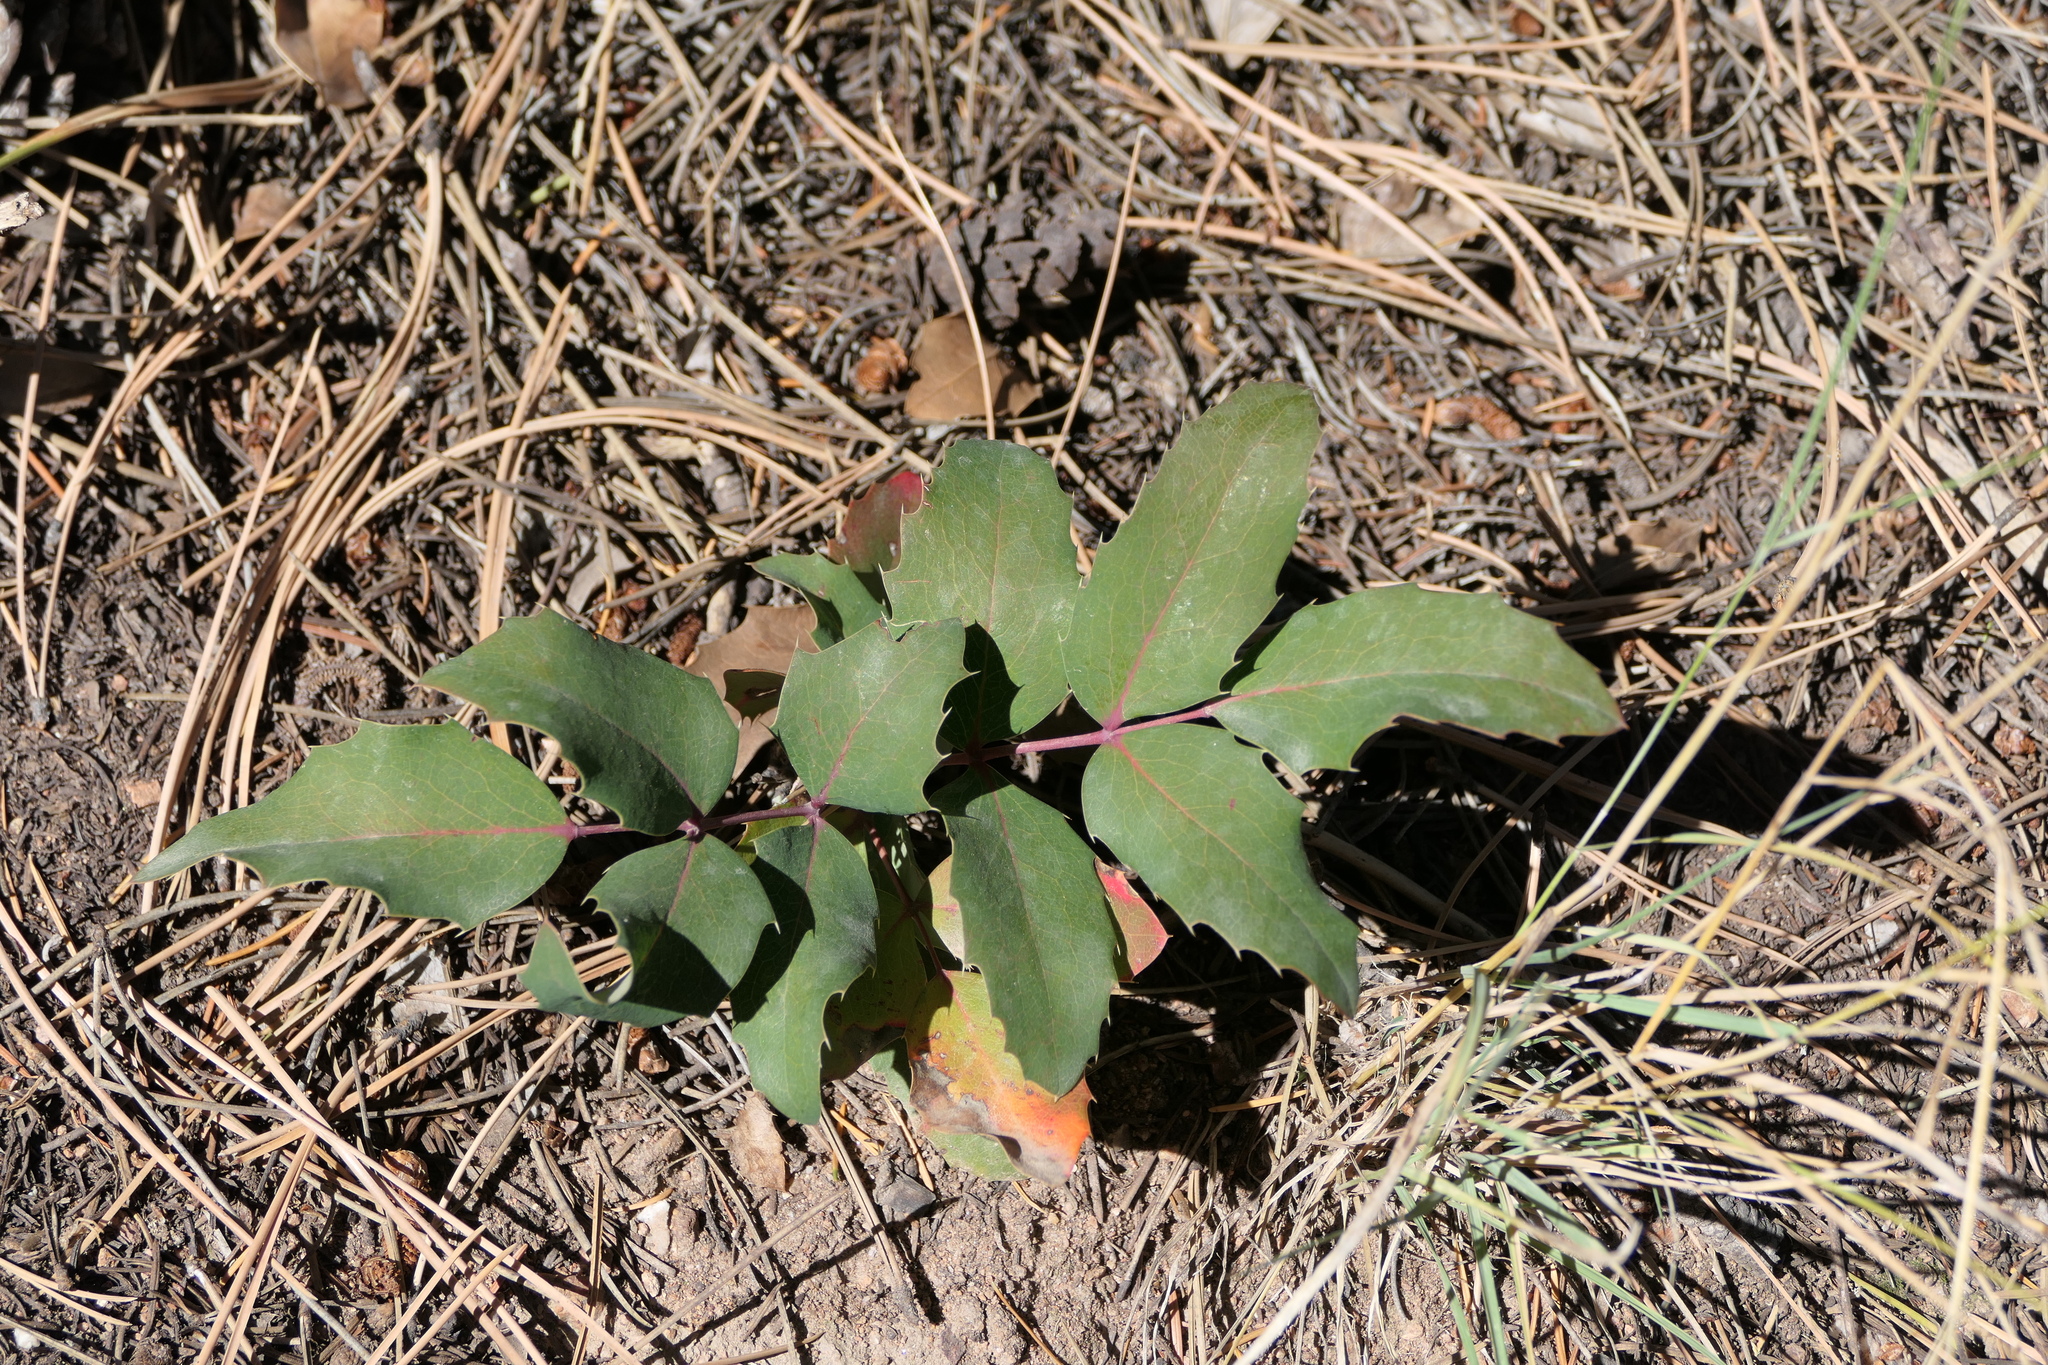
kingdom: Plantae
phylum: Tracheophyta
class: Magnoliopsida
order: Ranunculales
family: Berberidaceae
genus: Mahonia
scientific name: Mahonia repens
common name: Creeping oregon-grape
